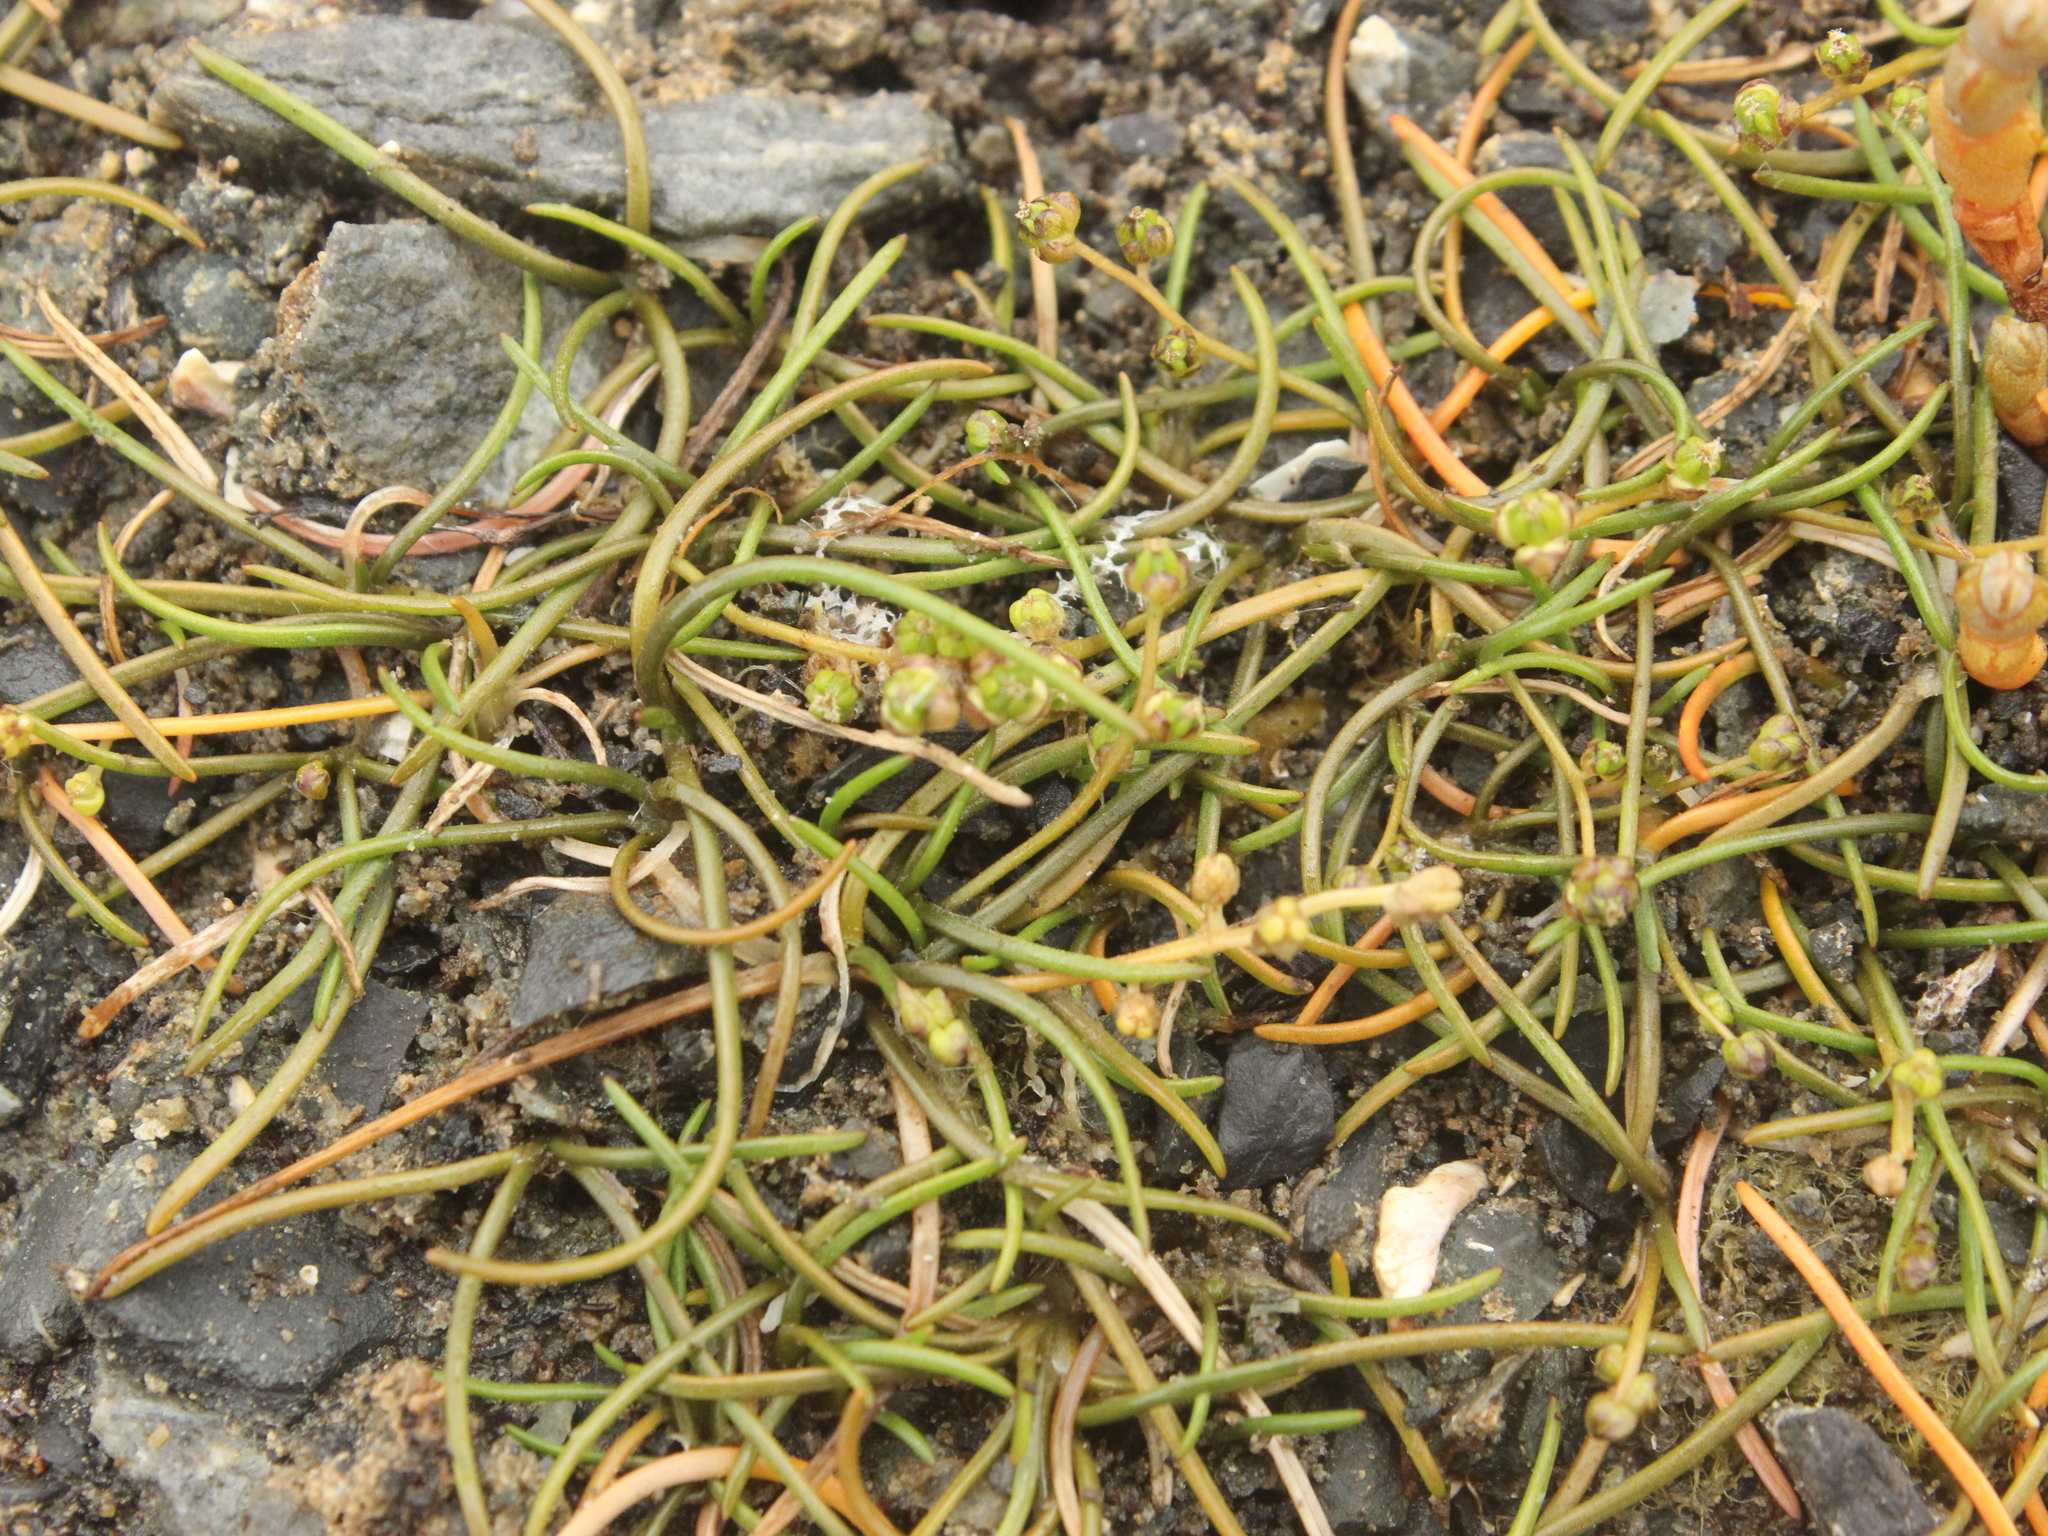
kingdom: Plantae
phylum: Tracheophyta
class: Liliopsida
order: Alismatales
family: Juncaginaceae
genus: Triglochin
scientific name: Triglochin striata
